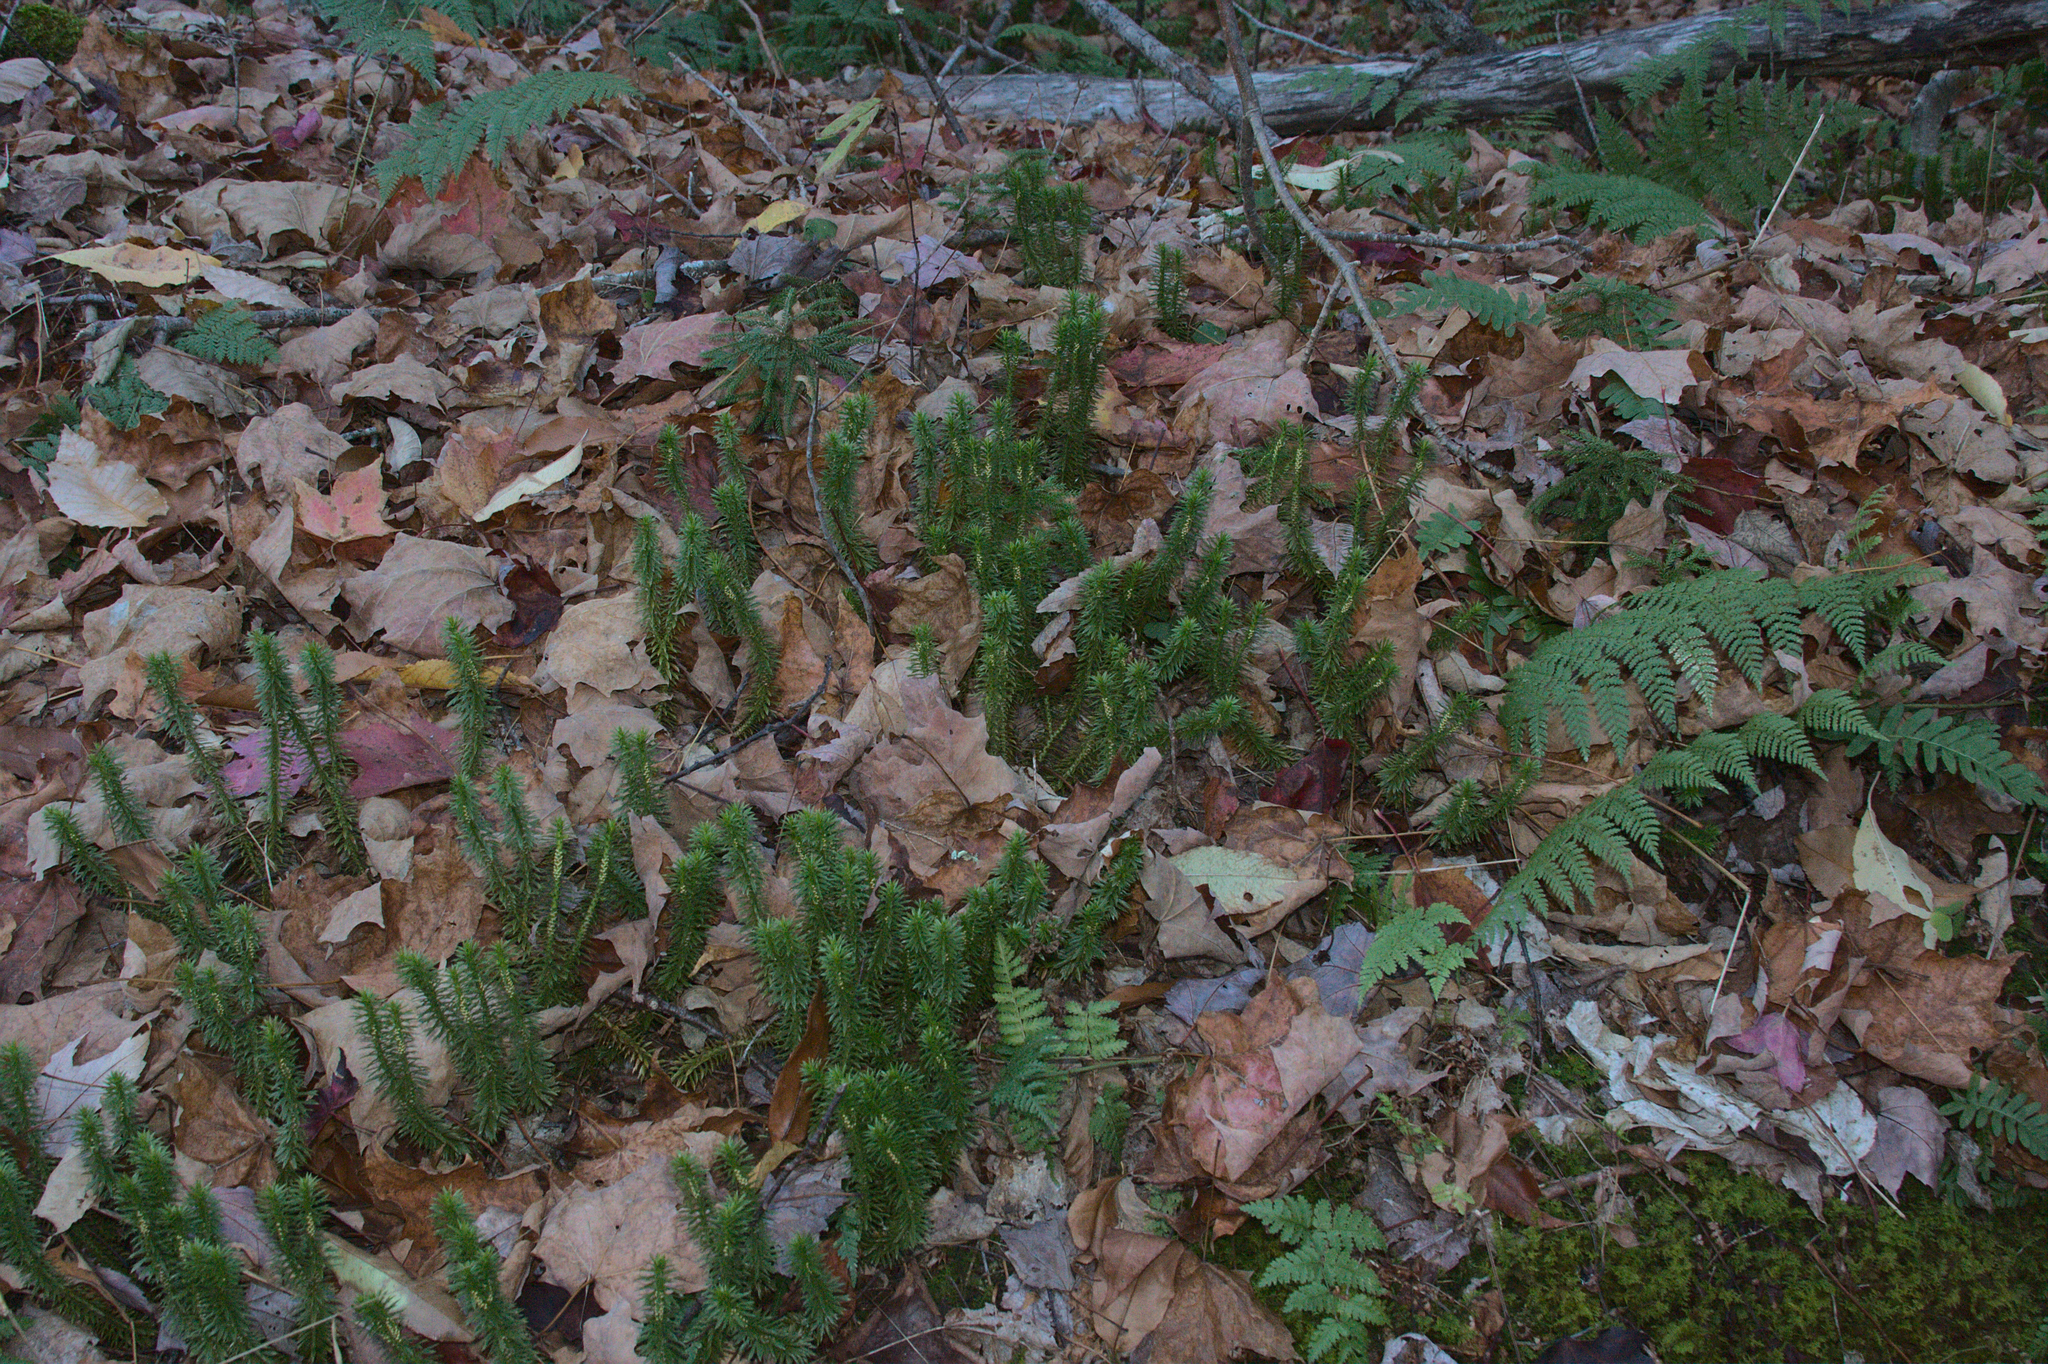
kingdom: Plantae
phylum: Tracheophyta
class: Lycopodiopsida
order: Lycopodiales
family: Lycopodiaceae
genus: Huperzia
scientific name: Huperzia lucidula
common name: Shining clubmoss
